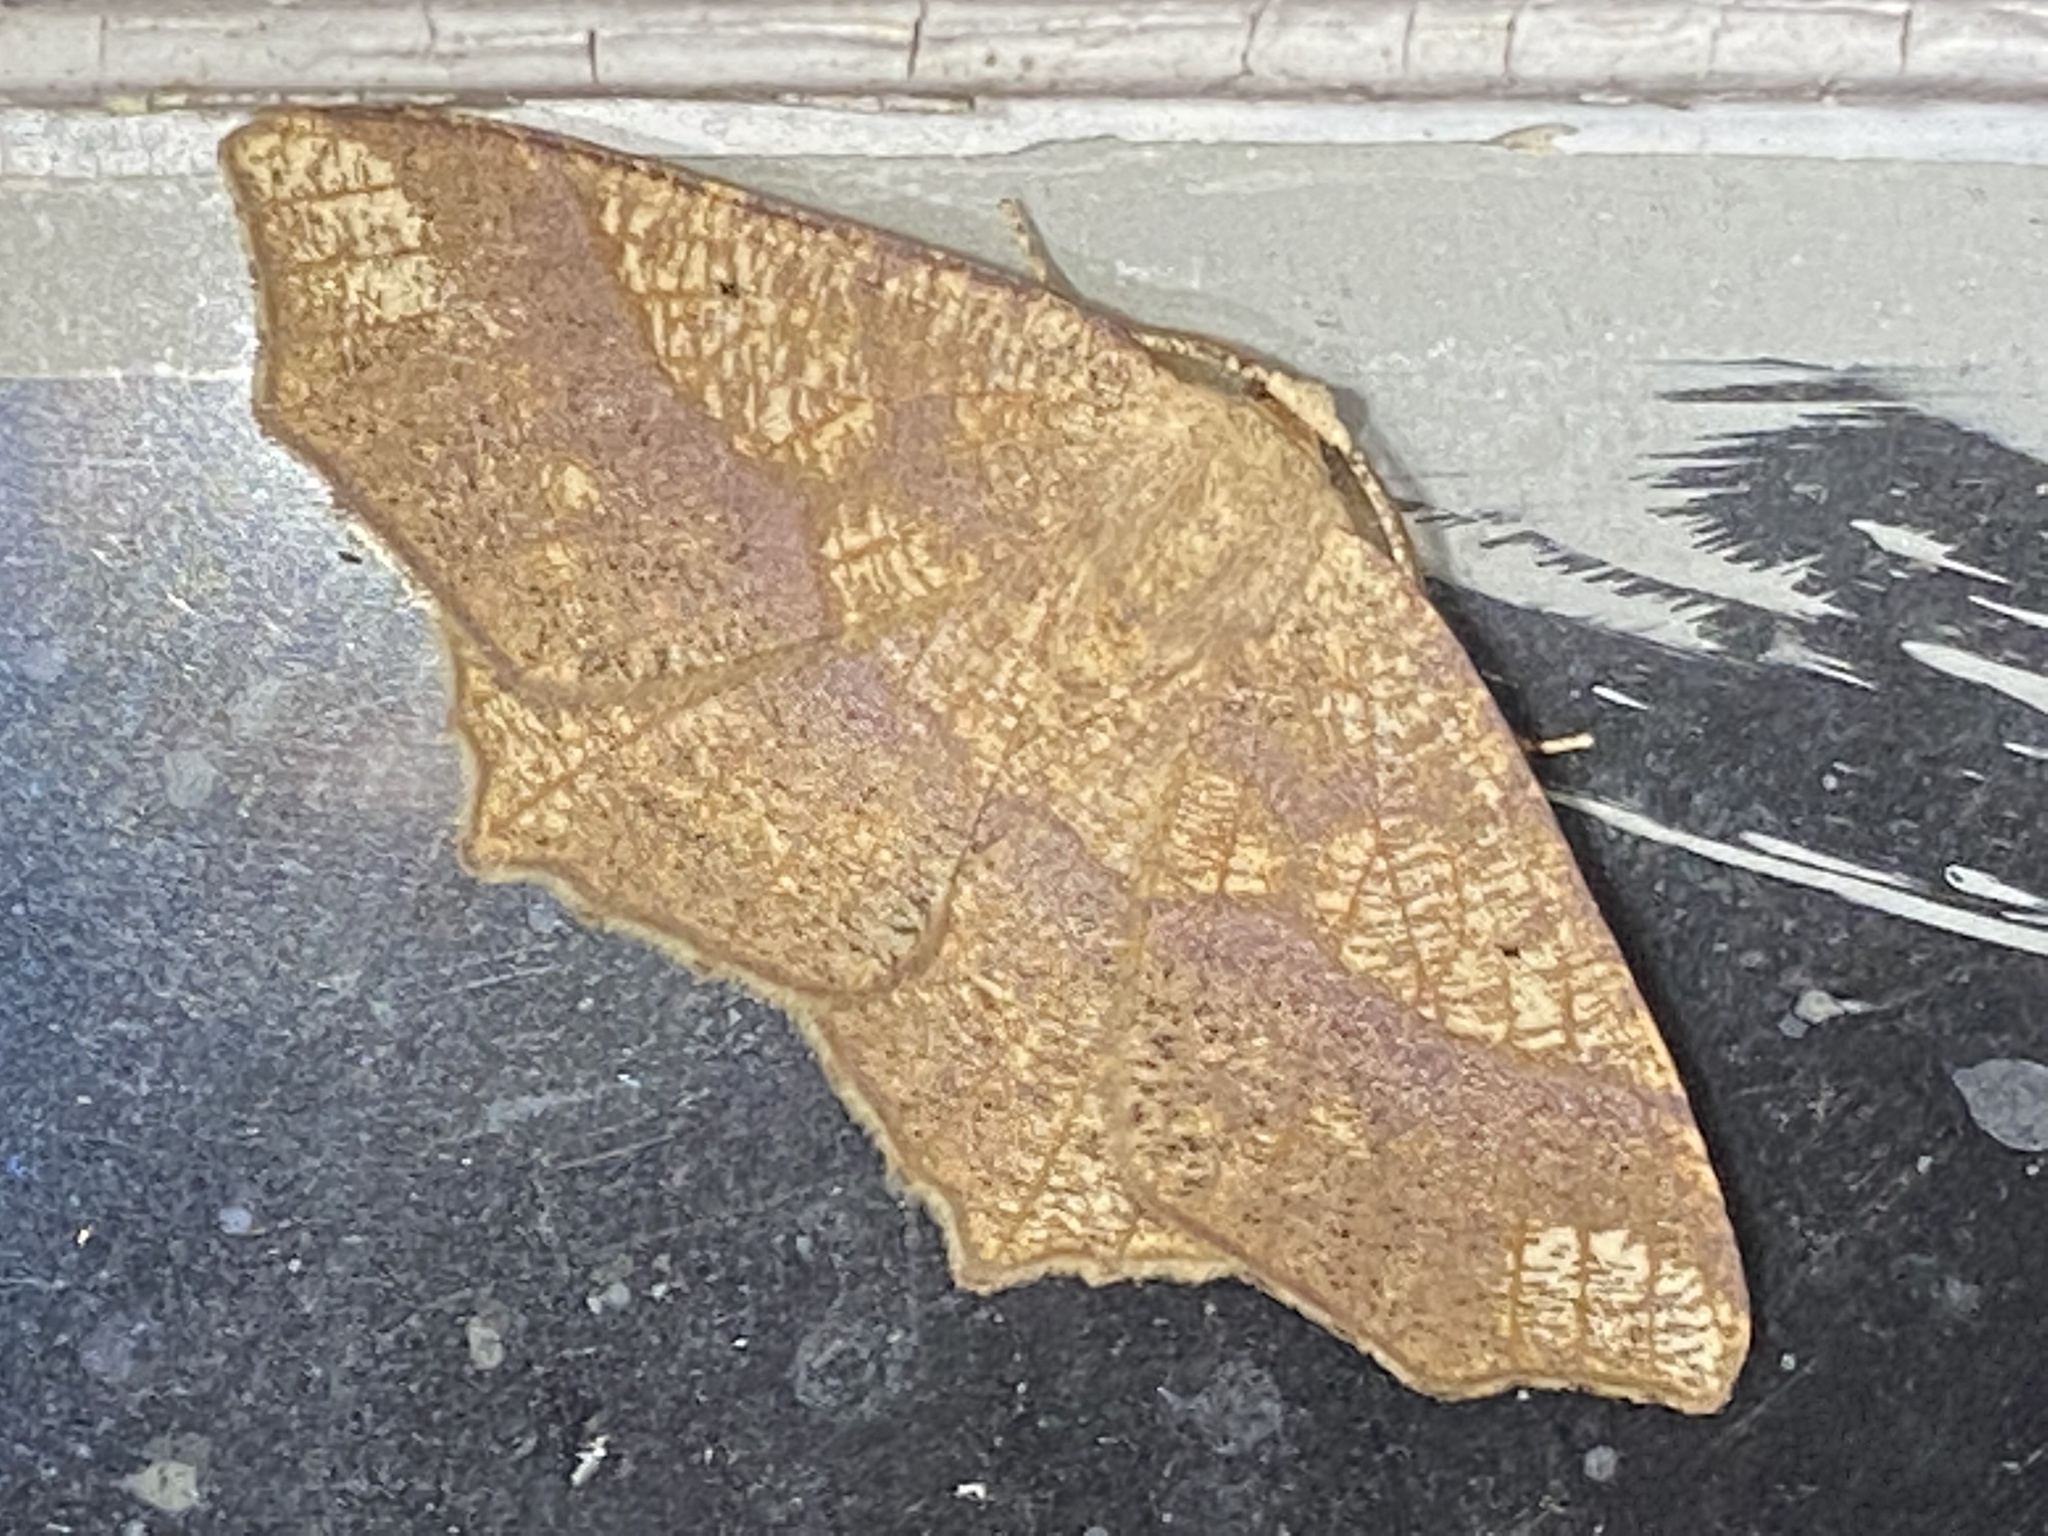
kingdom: Animalia
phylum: Arthropoda
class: Insecta
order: Lepidoptera
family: Geometridae
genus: Besma
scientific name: Besma quercivoraria
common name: Oak besma
